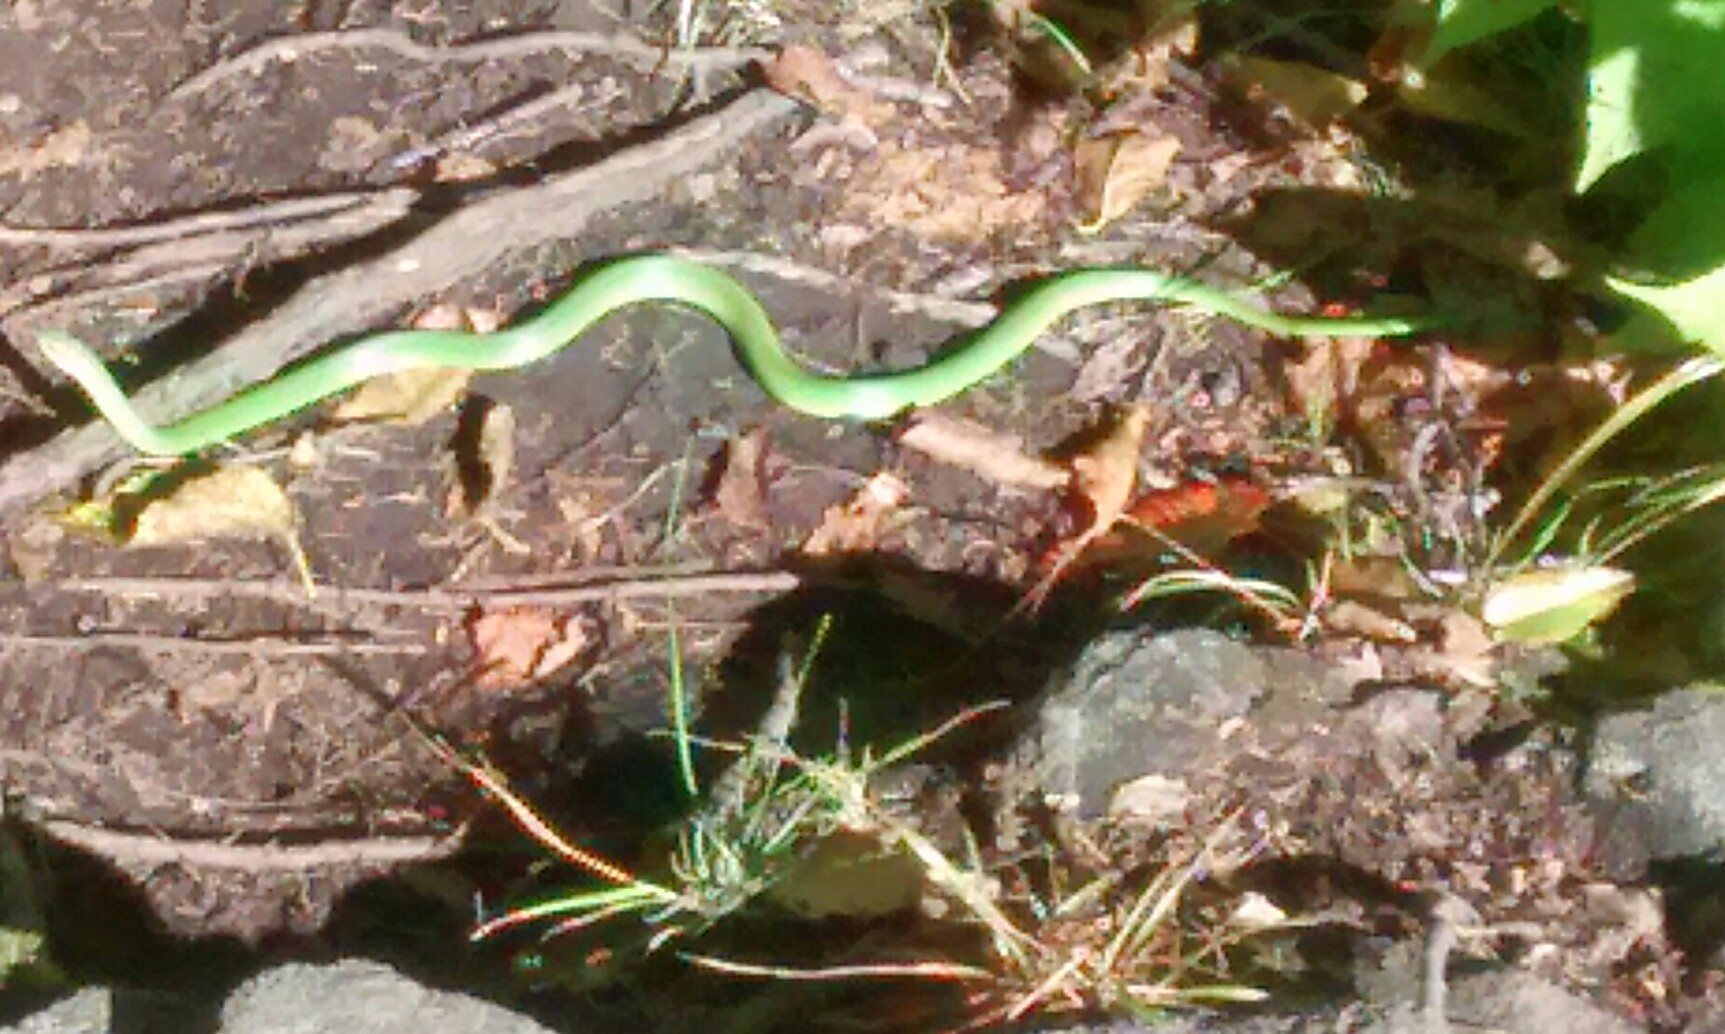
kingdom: Animalia
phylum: Chordata
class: Squamata
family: Colubridae
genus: Opheodrys
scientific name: Opheodrys vernalis
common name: Smooth green snake
